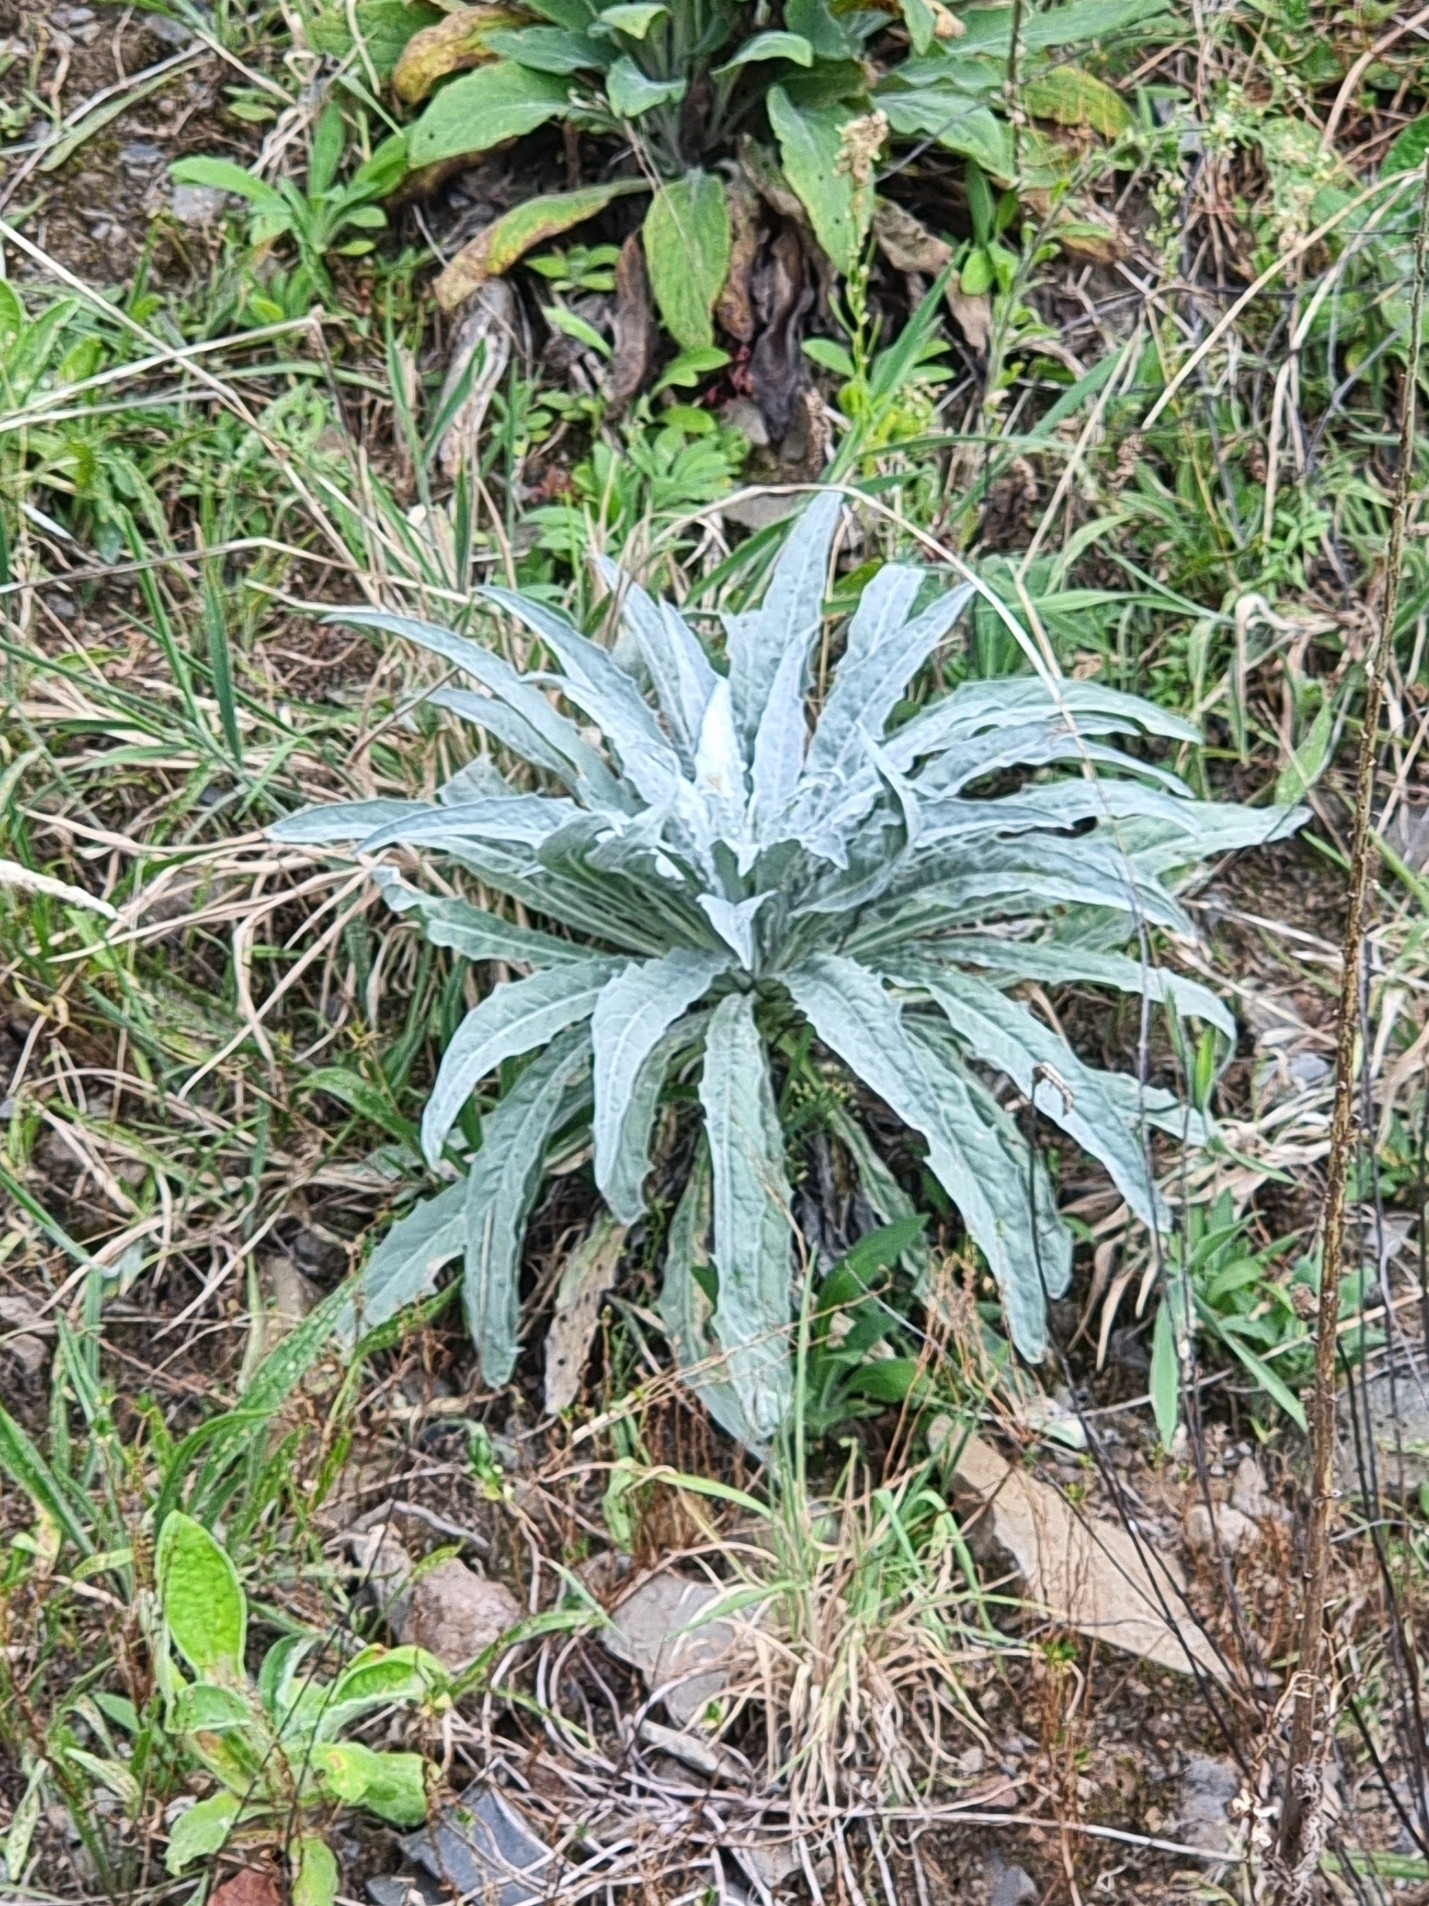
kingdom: Plantae
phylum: Tracheophyta
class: Magnoliopsida
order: Asterales
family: Asteraceae
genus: Andryala
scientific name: Andryala glandulosa
